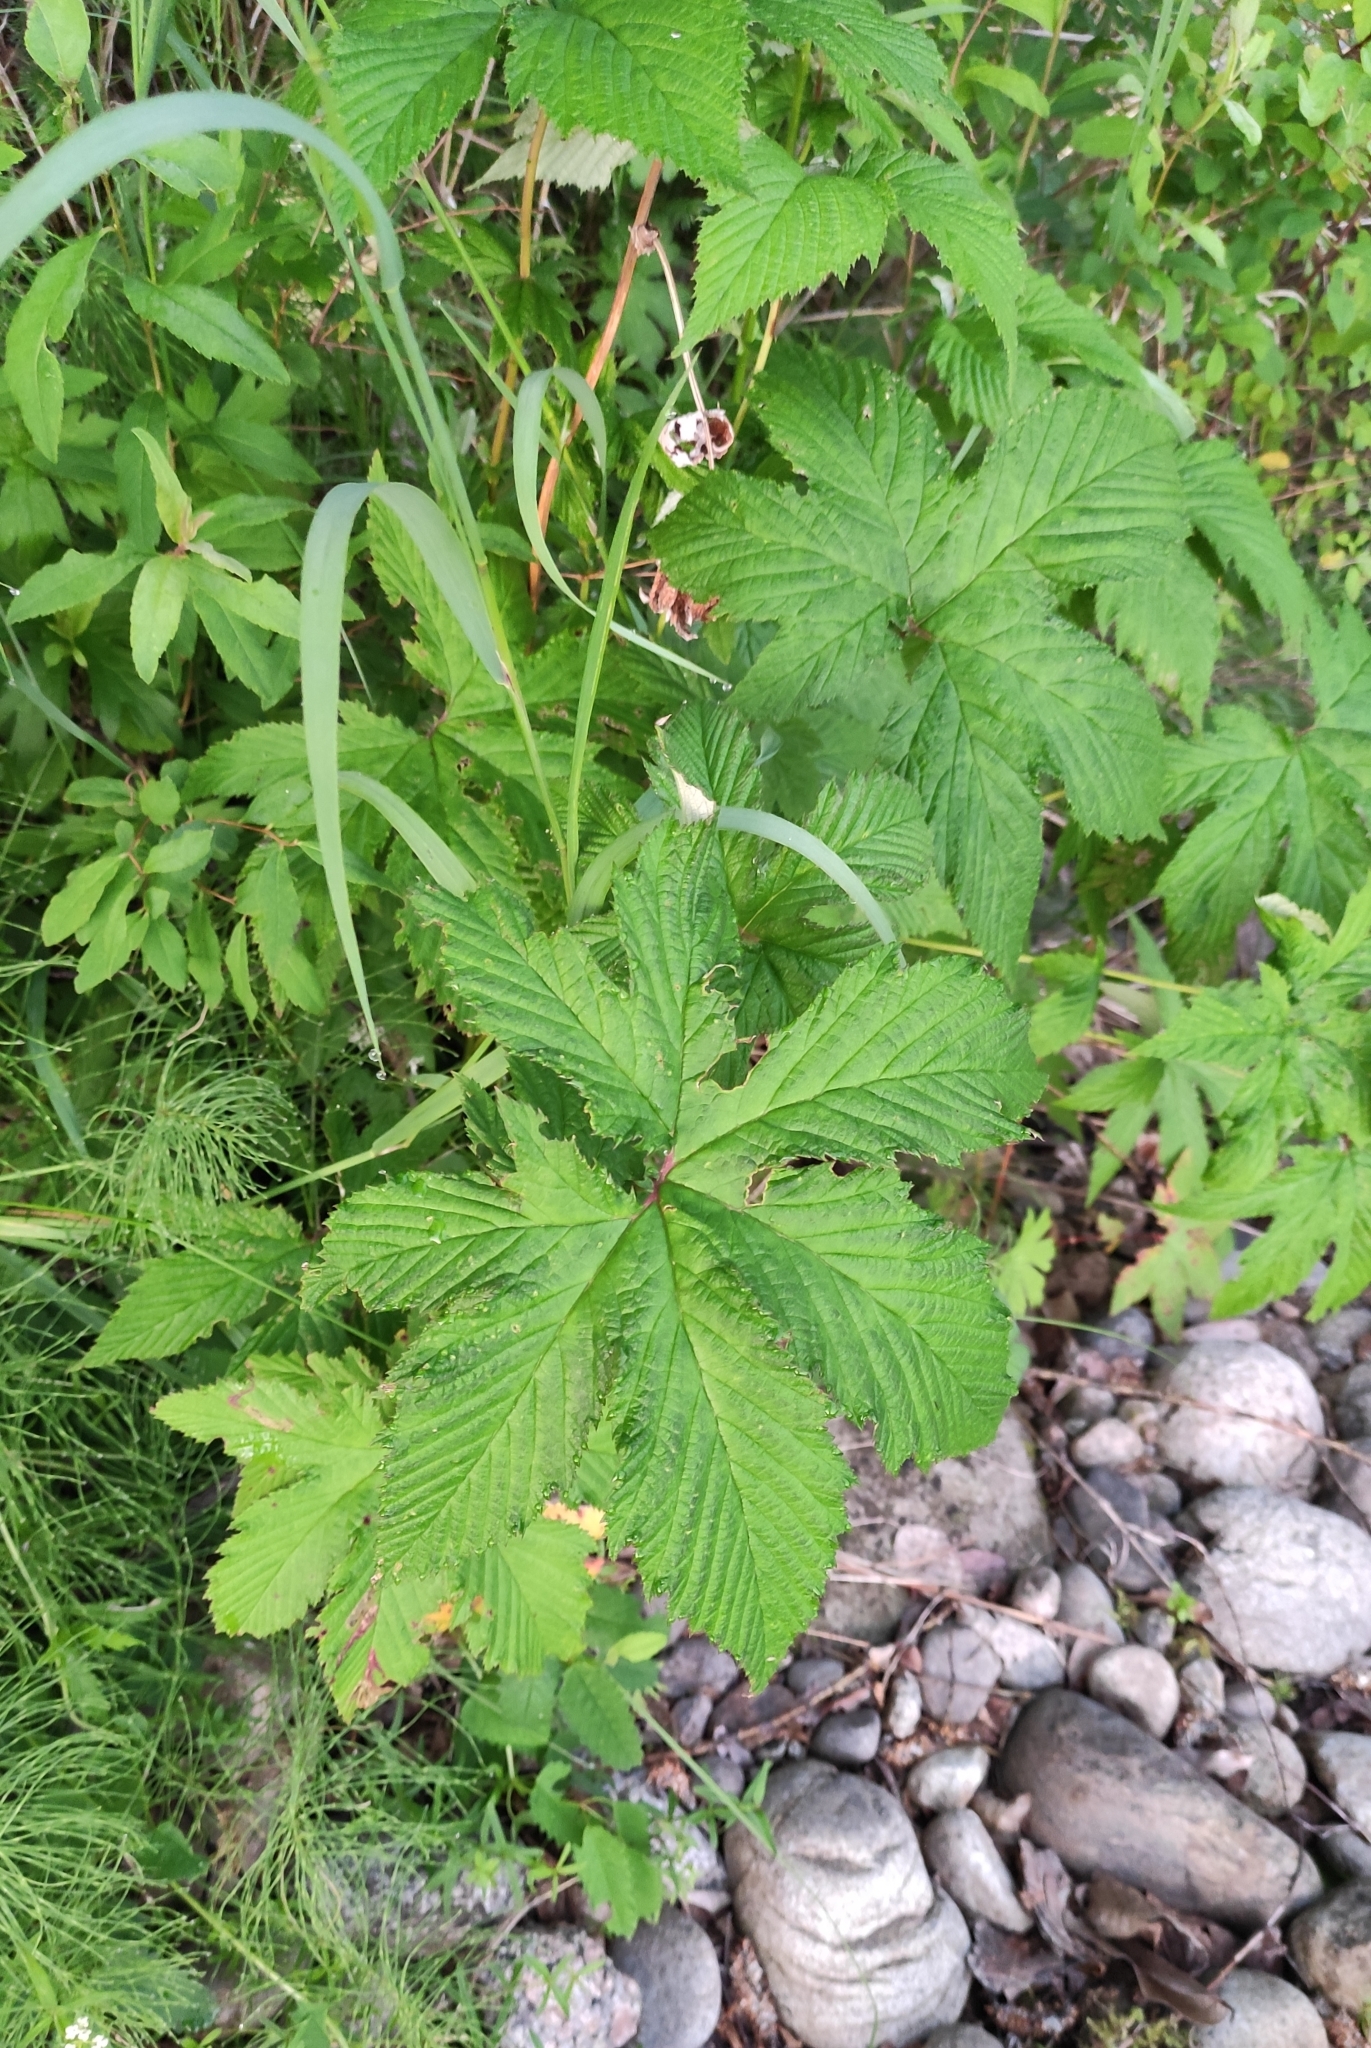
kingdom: Plantae
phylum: Tracheophyta
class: Magnoliopsida
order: Rosales
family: Rosaceae
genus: Filipendula
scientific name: Filipendula digitata
